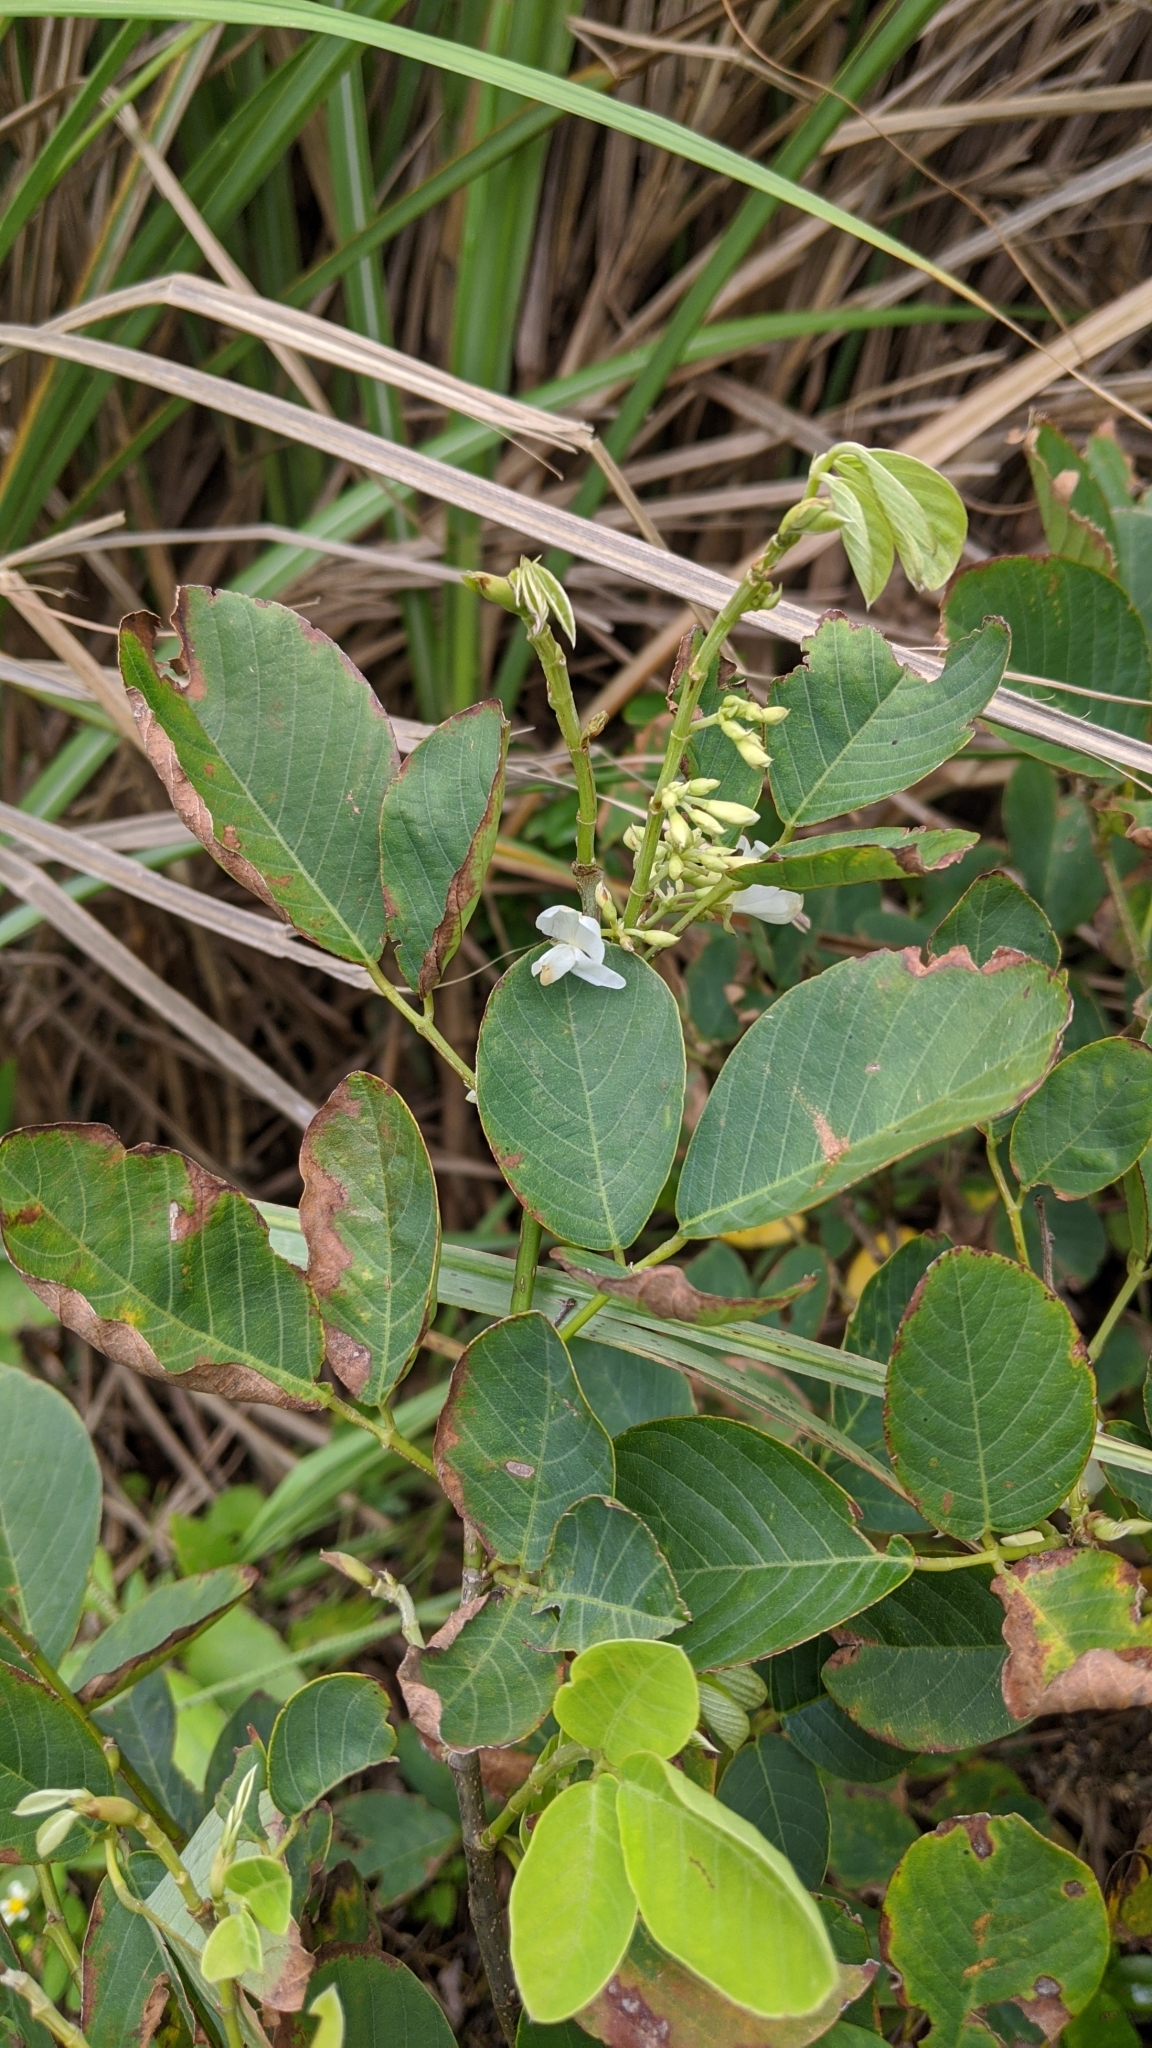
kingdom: Plantae
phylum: Tracheophyta
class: Magnoliopsida
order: Fabales
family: Fabaceae
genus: Dendrolobium
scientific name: Dendrolobium umbellatum
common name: Horsebush
